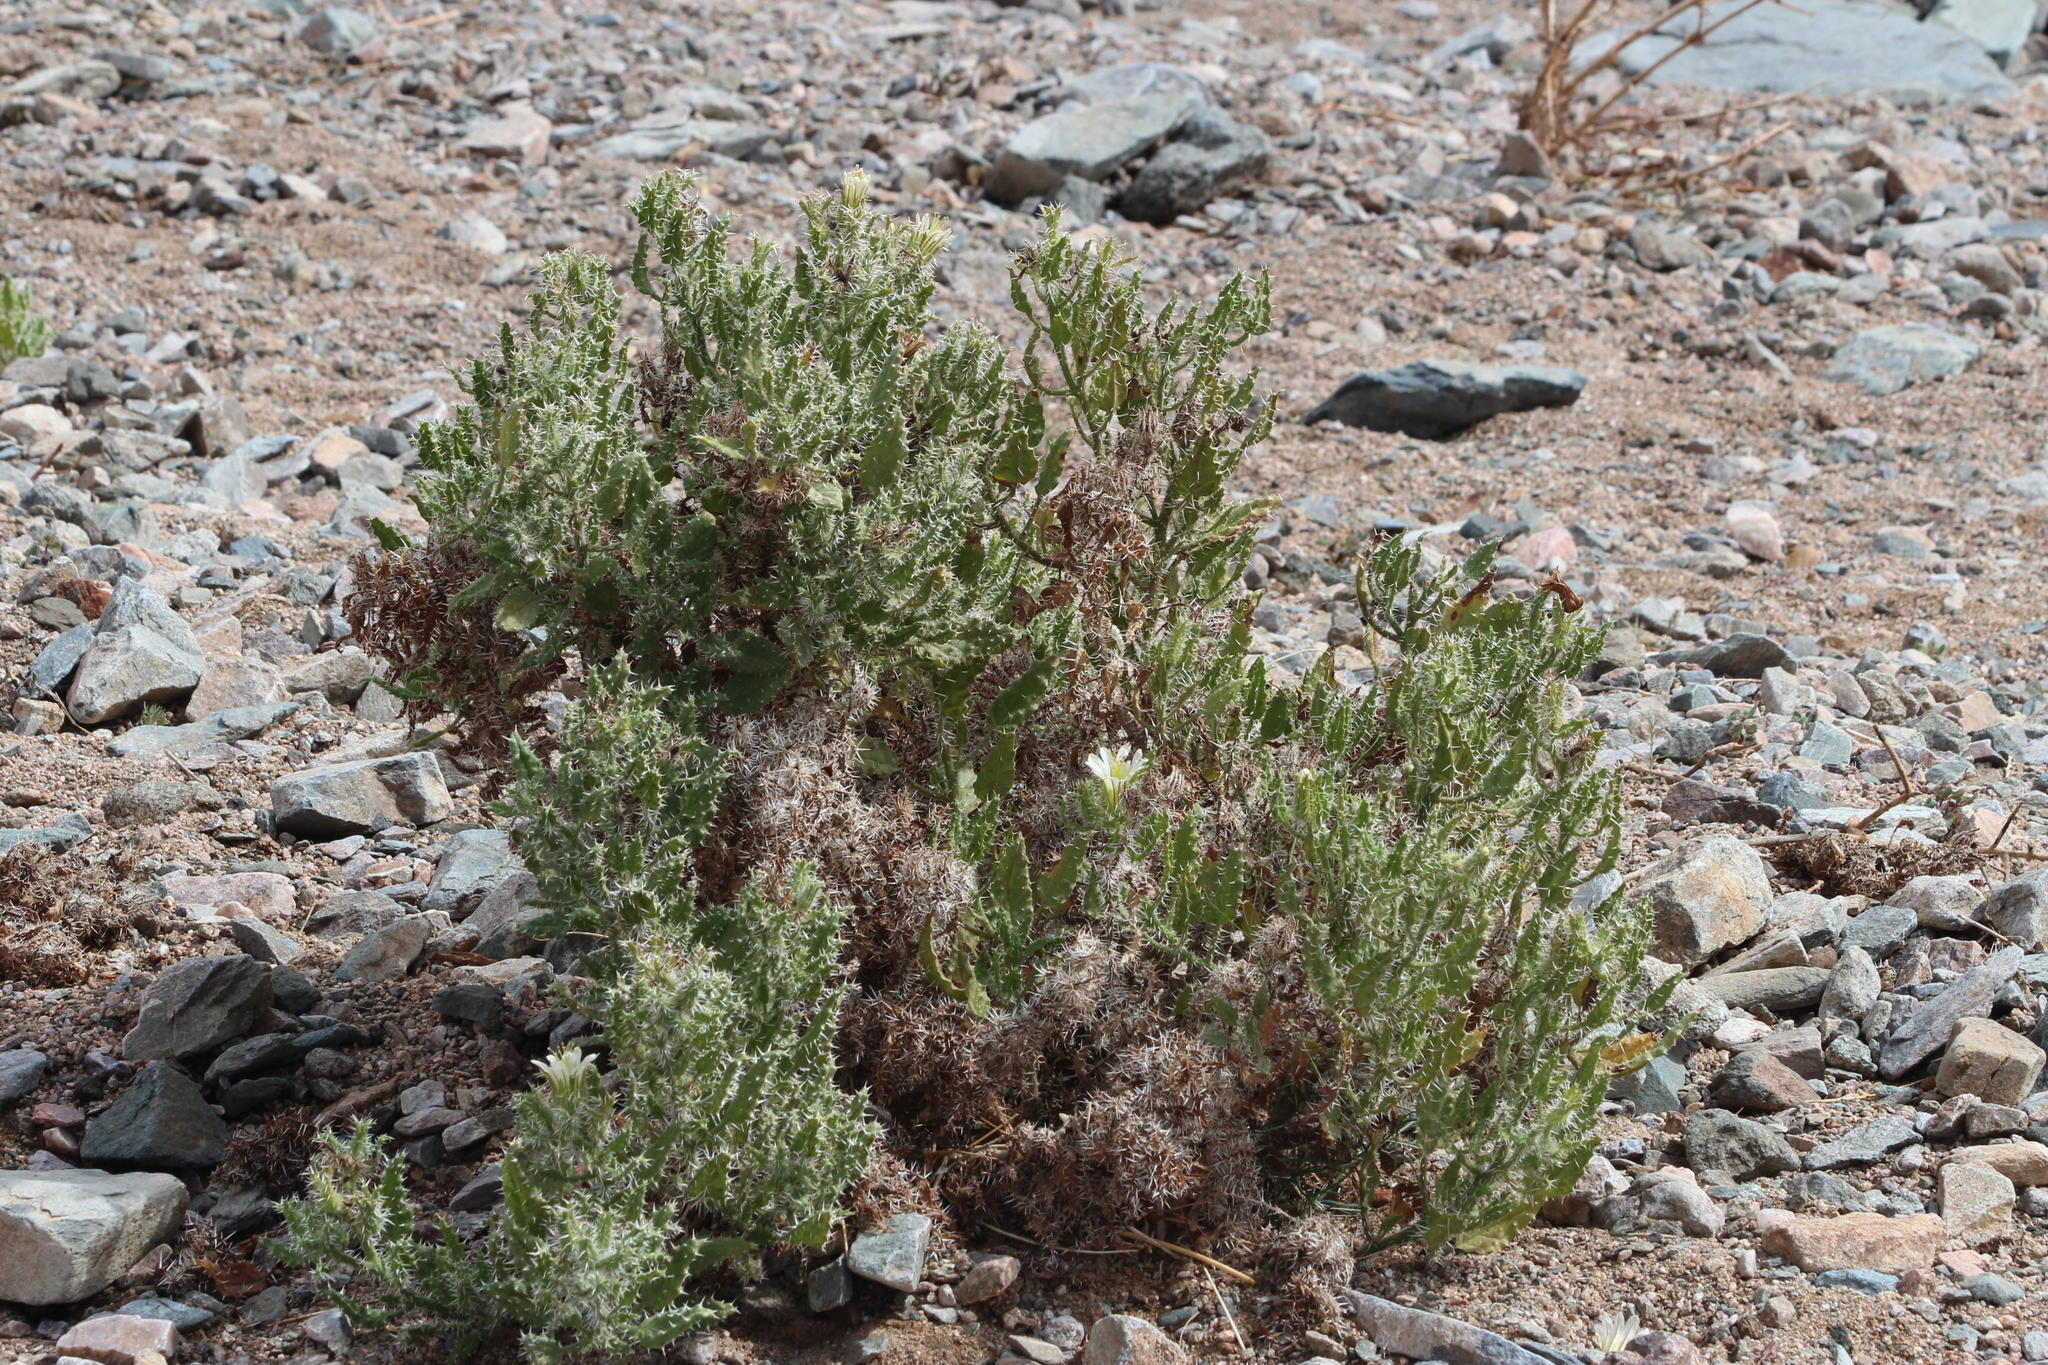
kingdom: Plantae
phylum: Tracheophyta
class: Magnoliopsida
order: Boraginales
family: Boraginaceae
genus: Codon
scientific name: Codon royenii
